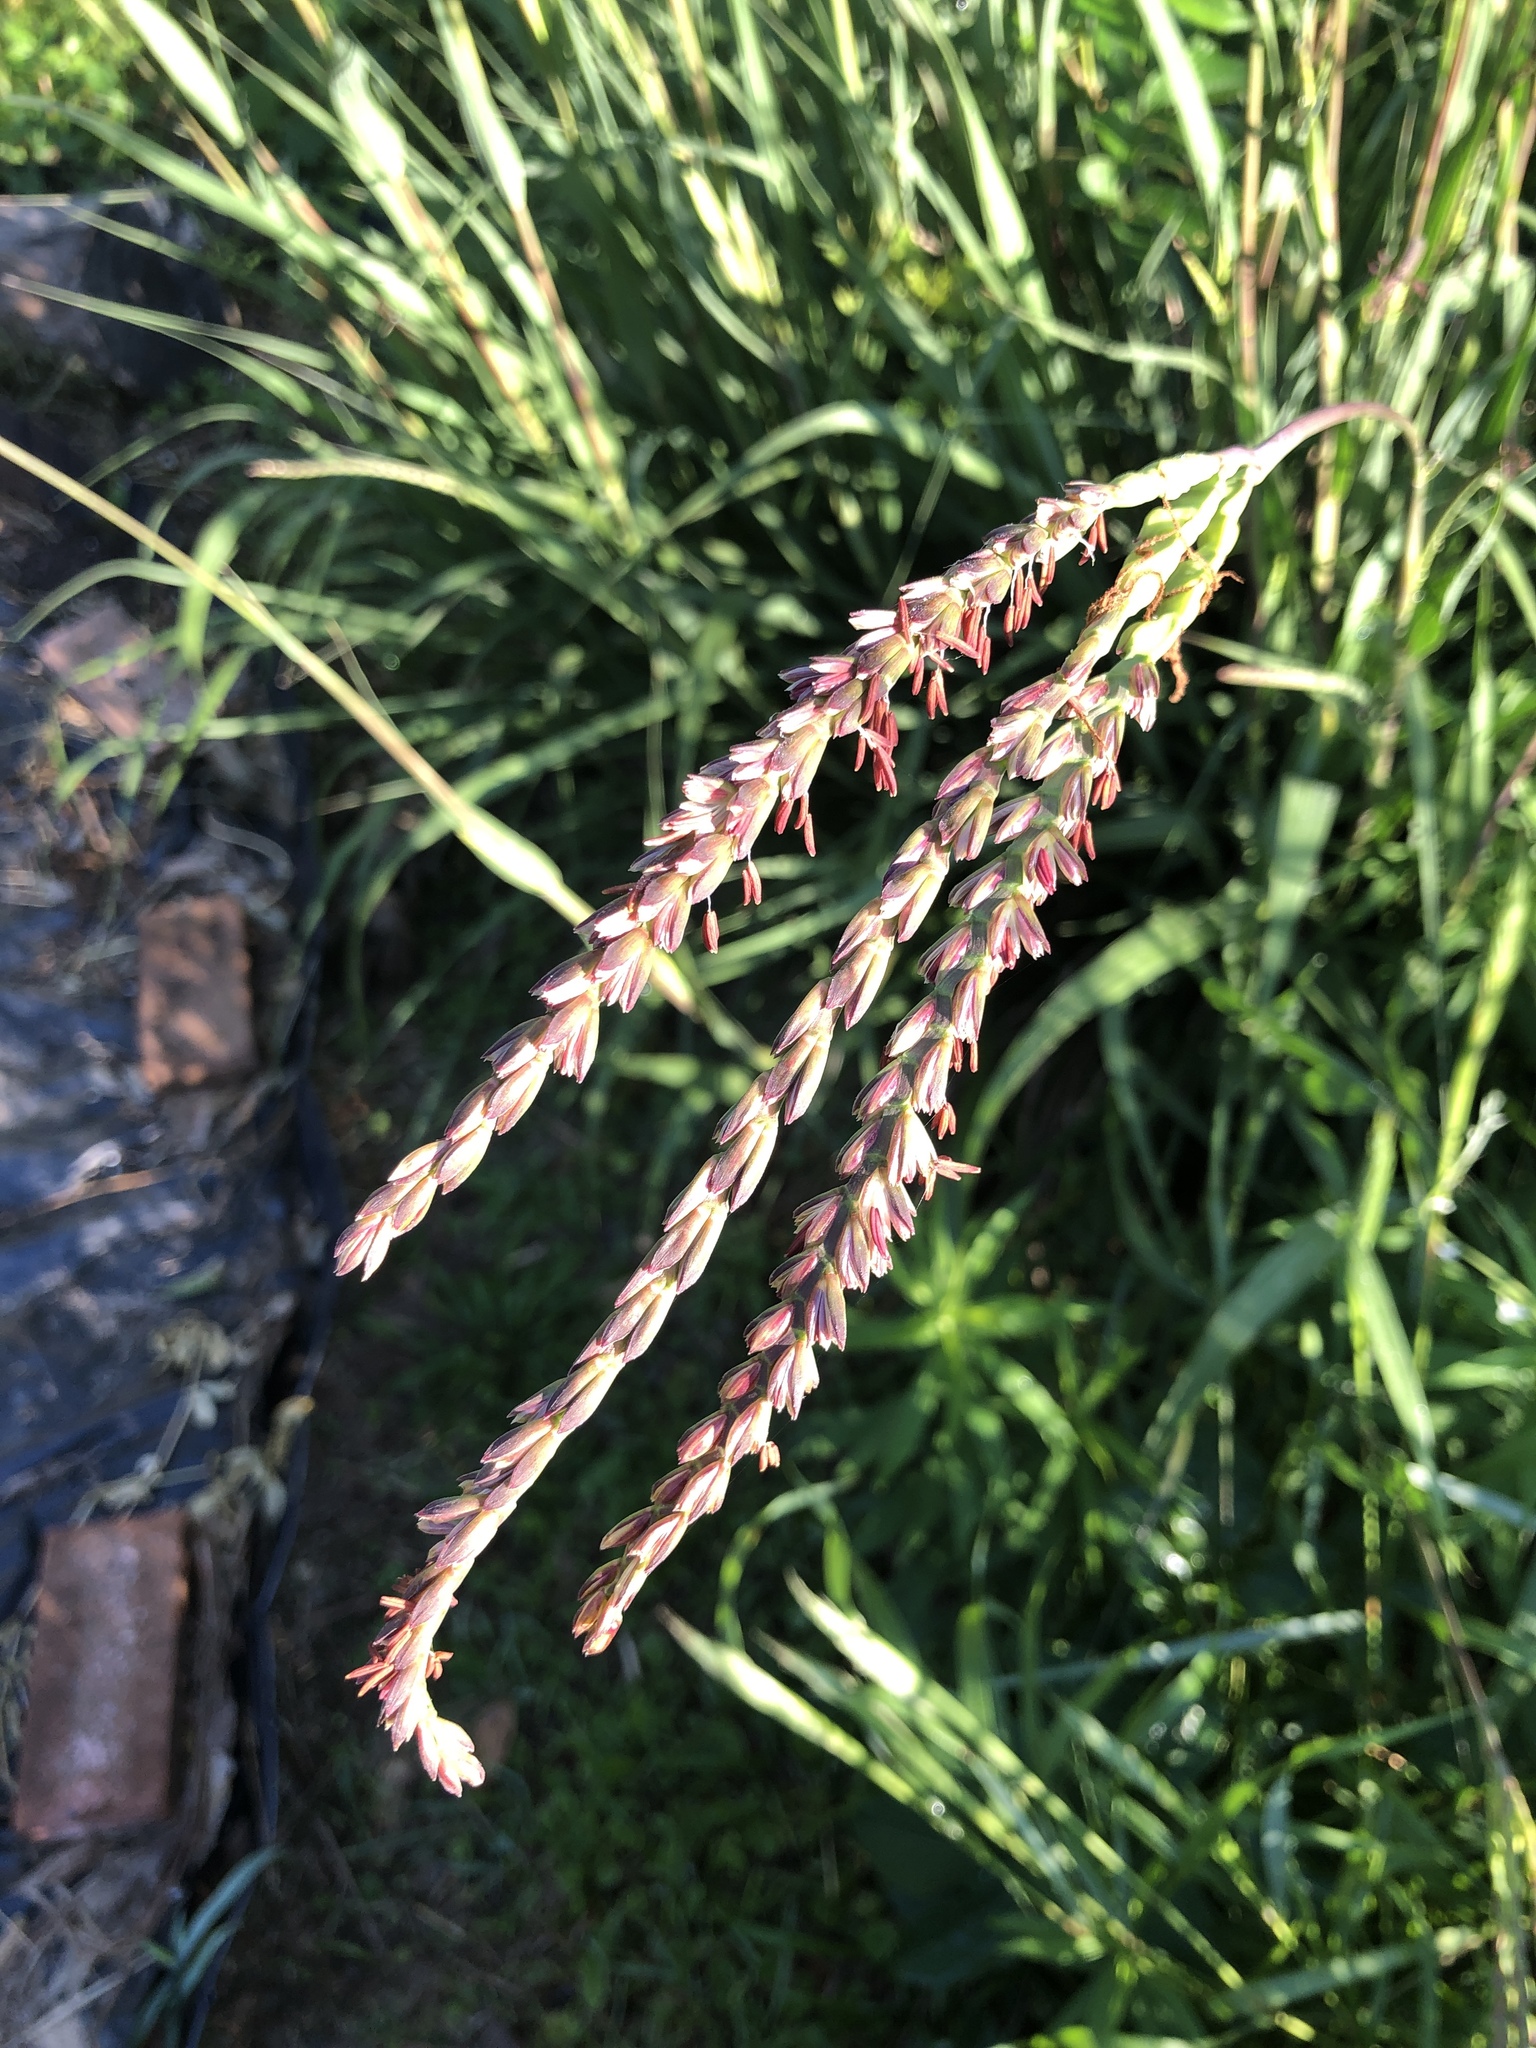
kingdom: Plantae
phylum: Tracheophyta
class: Liliopsida
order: Poales
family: Poaceae
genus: Tripsacum
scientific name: Tripsacum dactyloides
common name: Buffalo-grass
